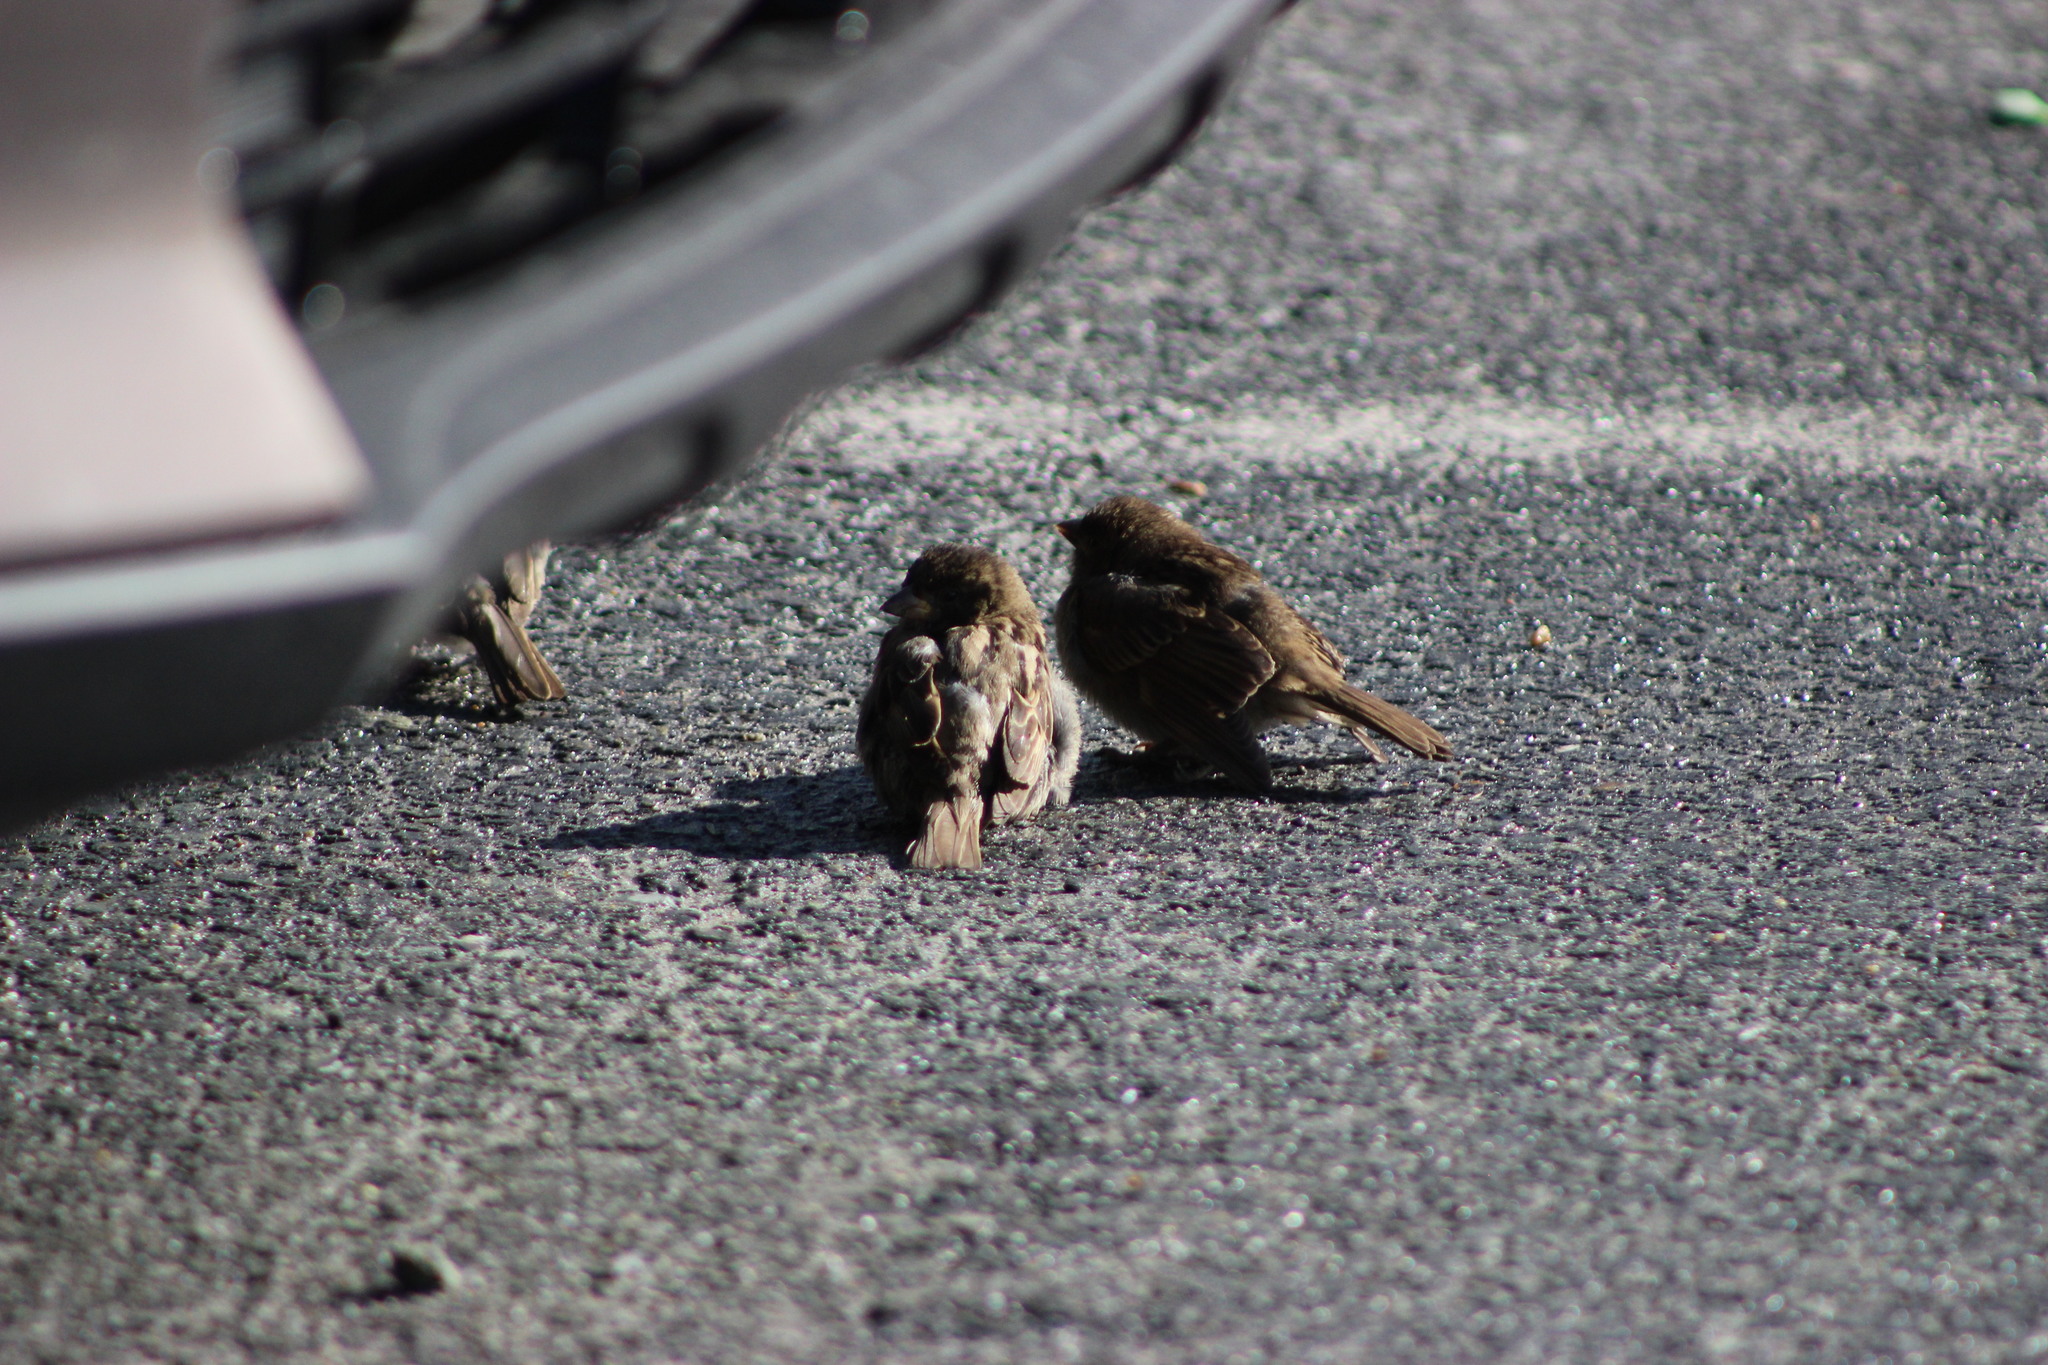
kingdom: Animalia
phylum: Chordata
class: Aves
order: Passeriformes
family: Passeridae
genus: Passer
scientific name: Passer domesticus
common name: House sparrow
